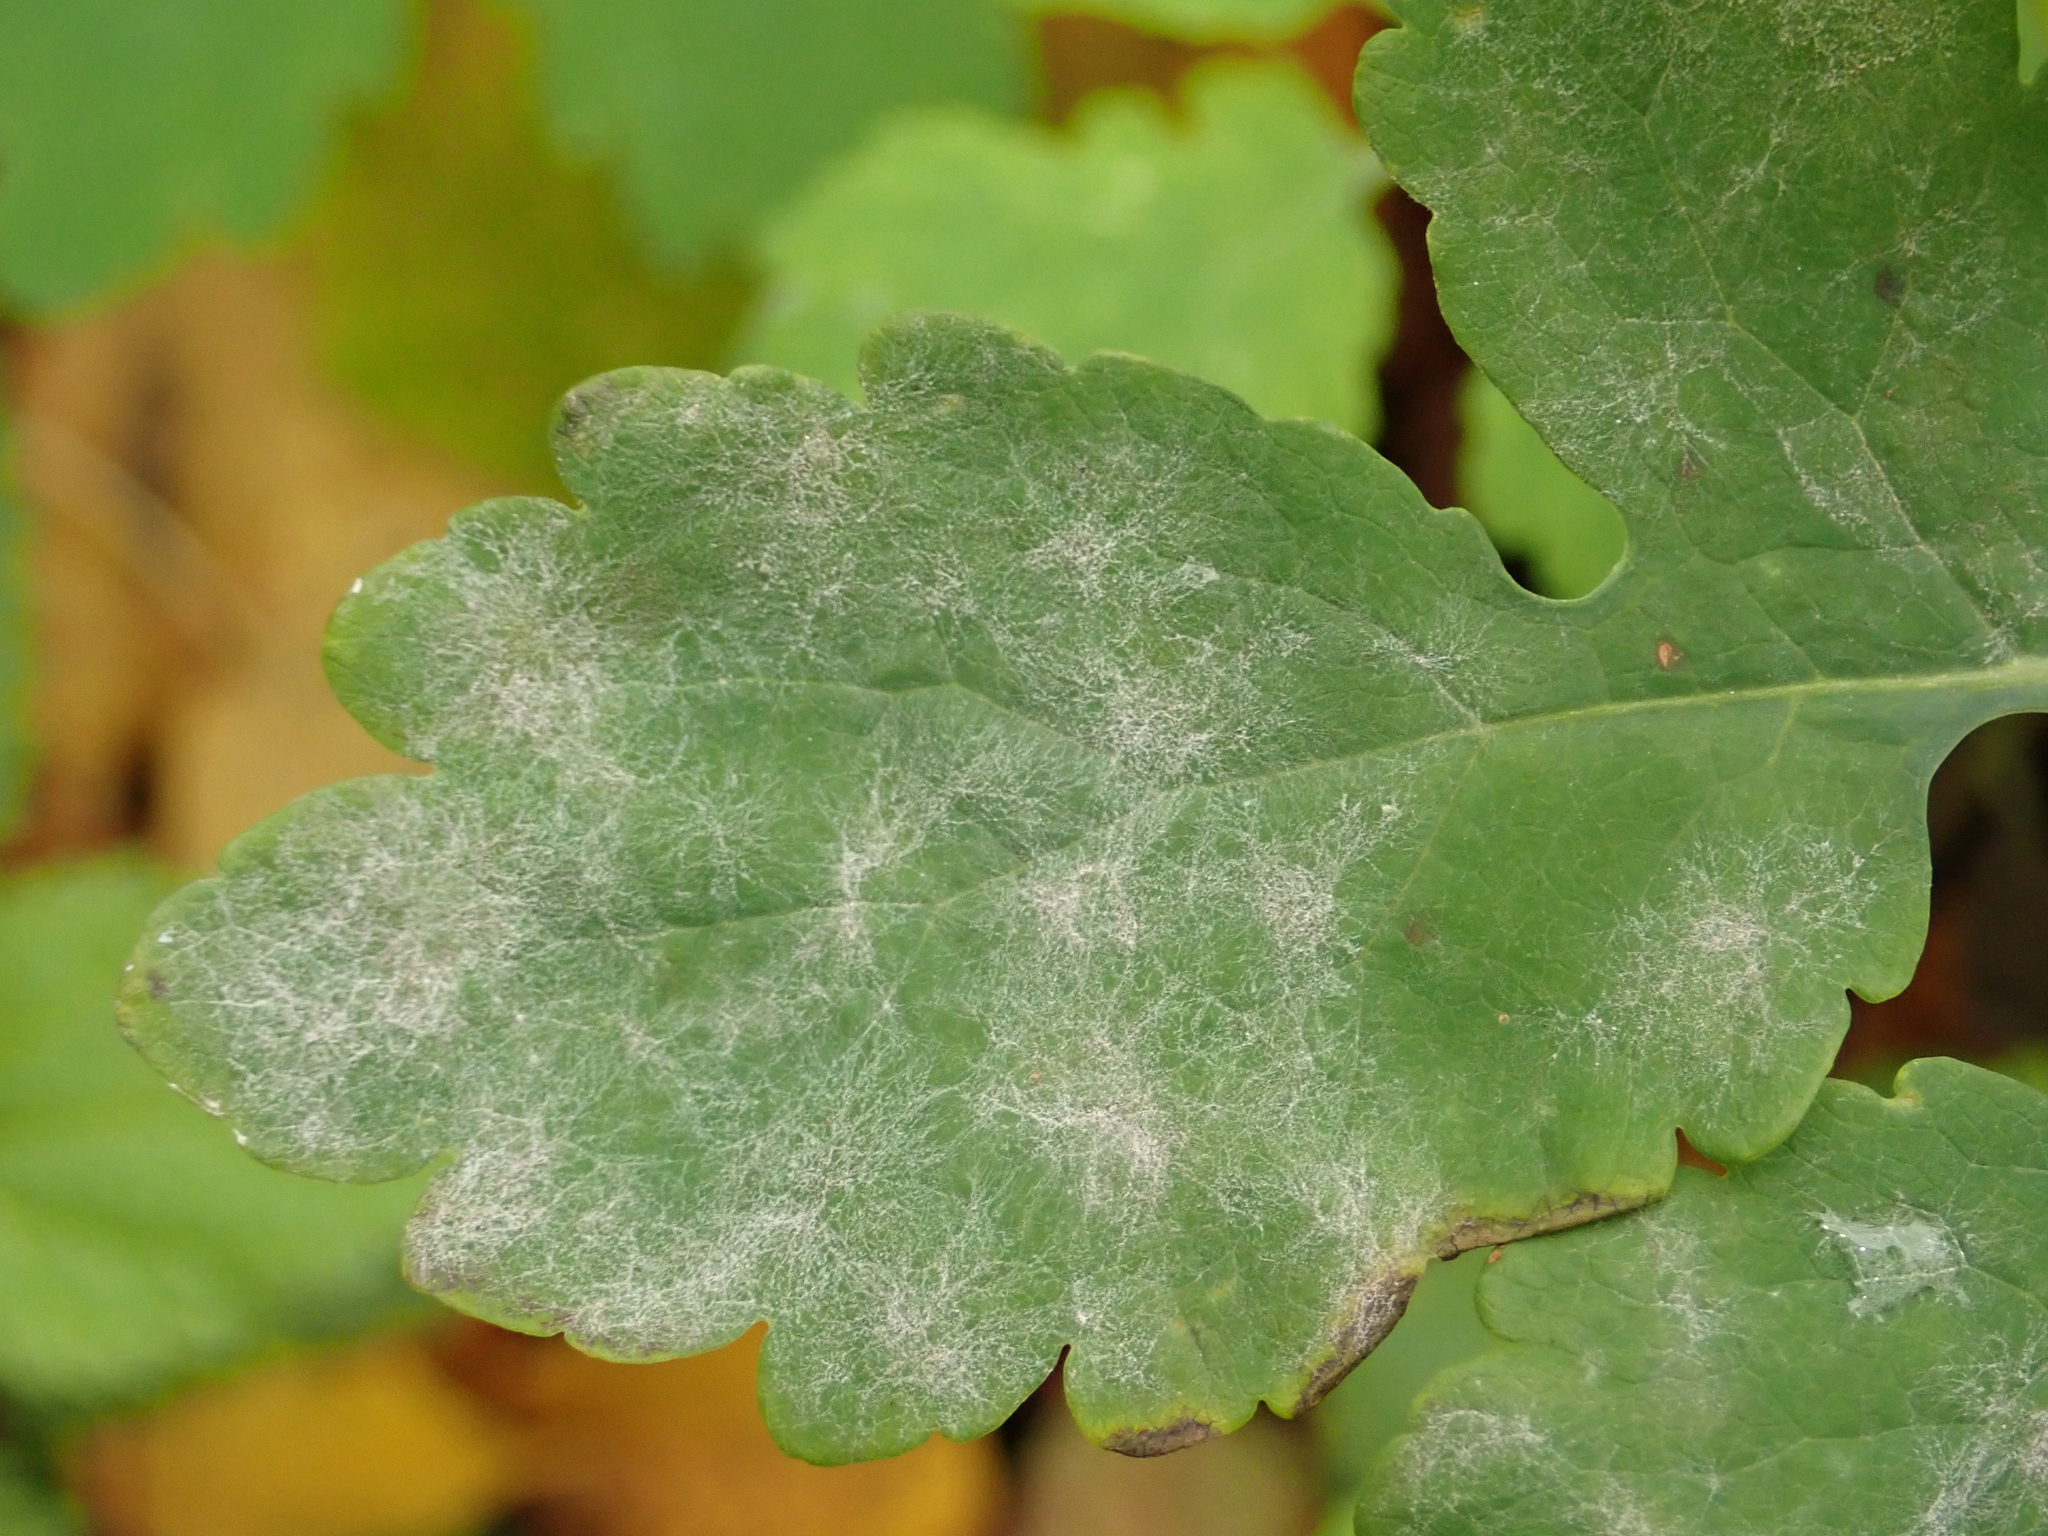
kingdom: Fungi
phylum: Ascomycota
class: Leotiomycetes
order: Helotiales
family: Erysiphaceae
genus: Erysiphe
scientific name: Erysiphe macleayae
